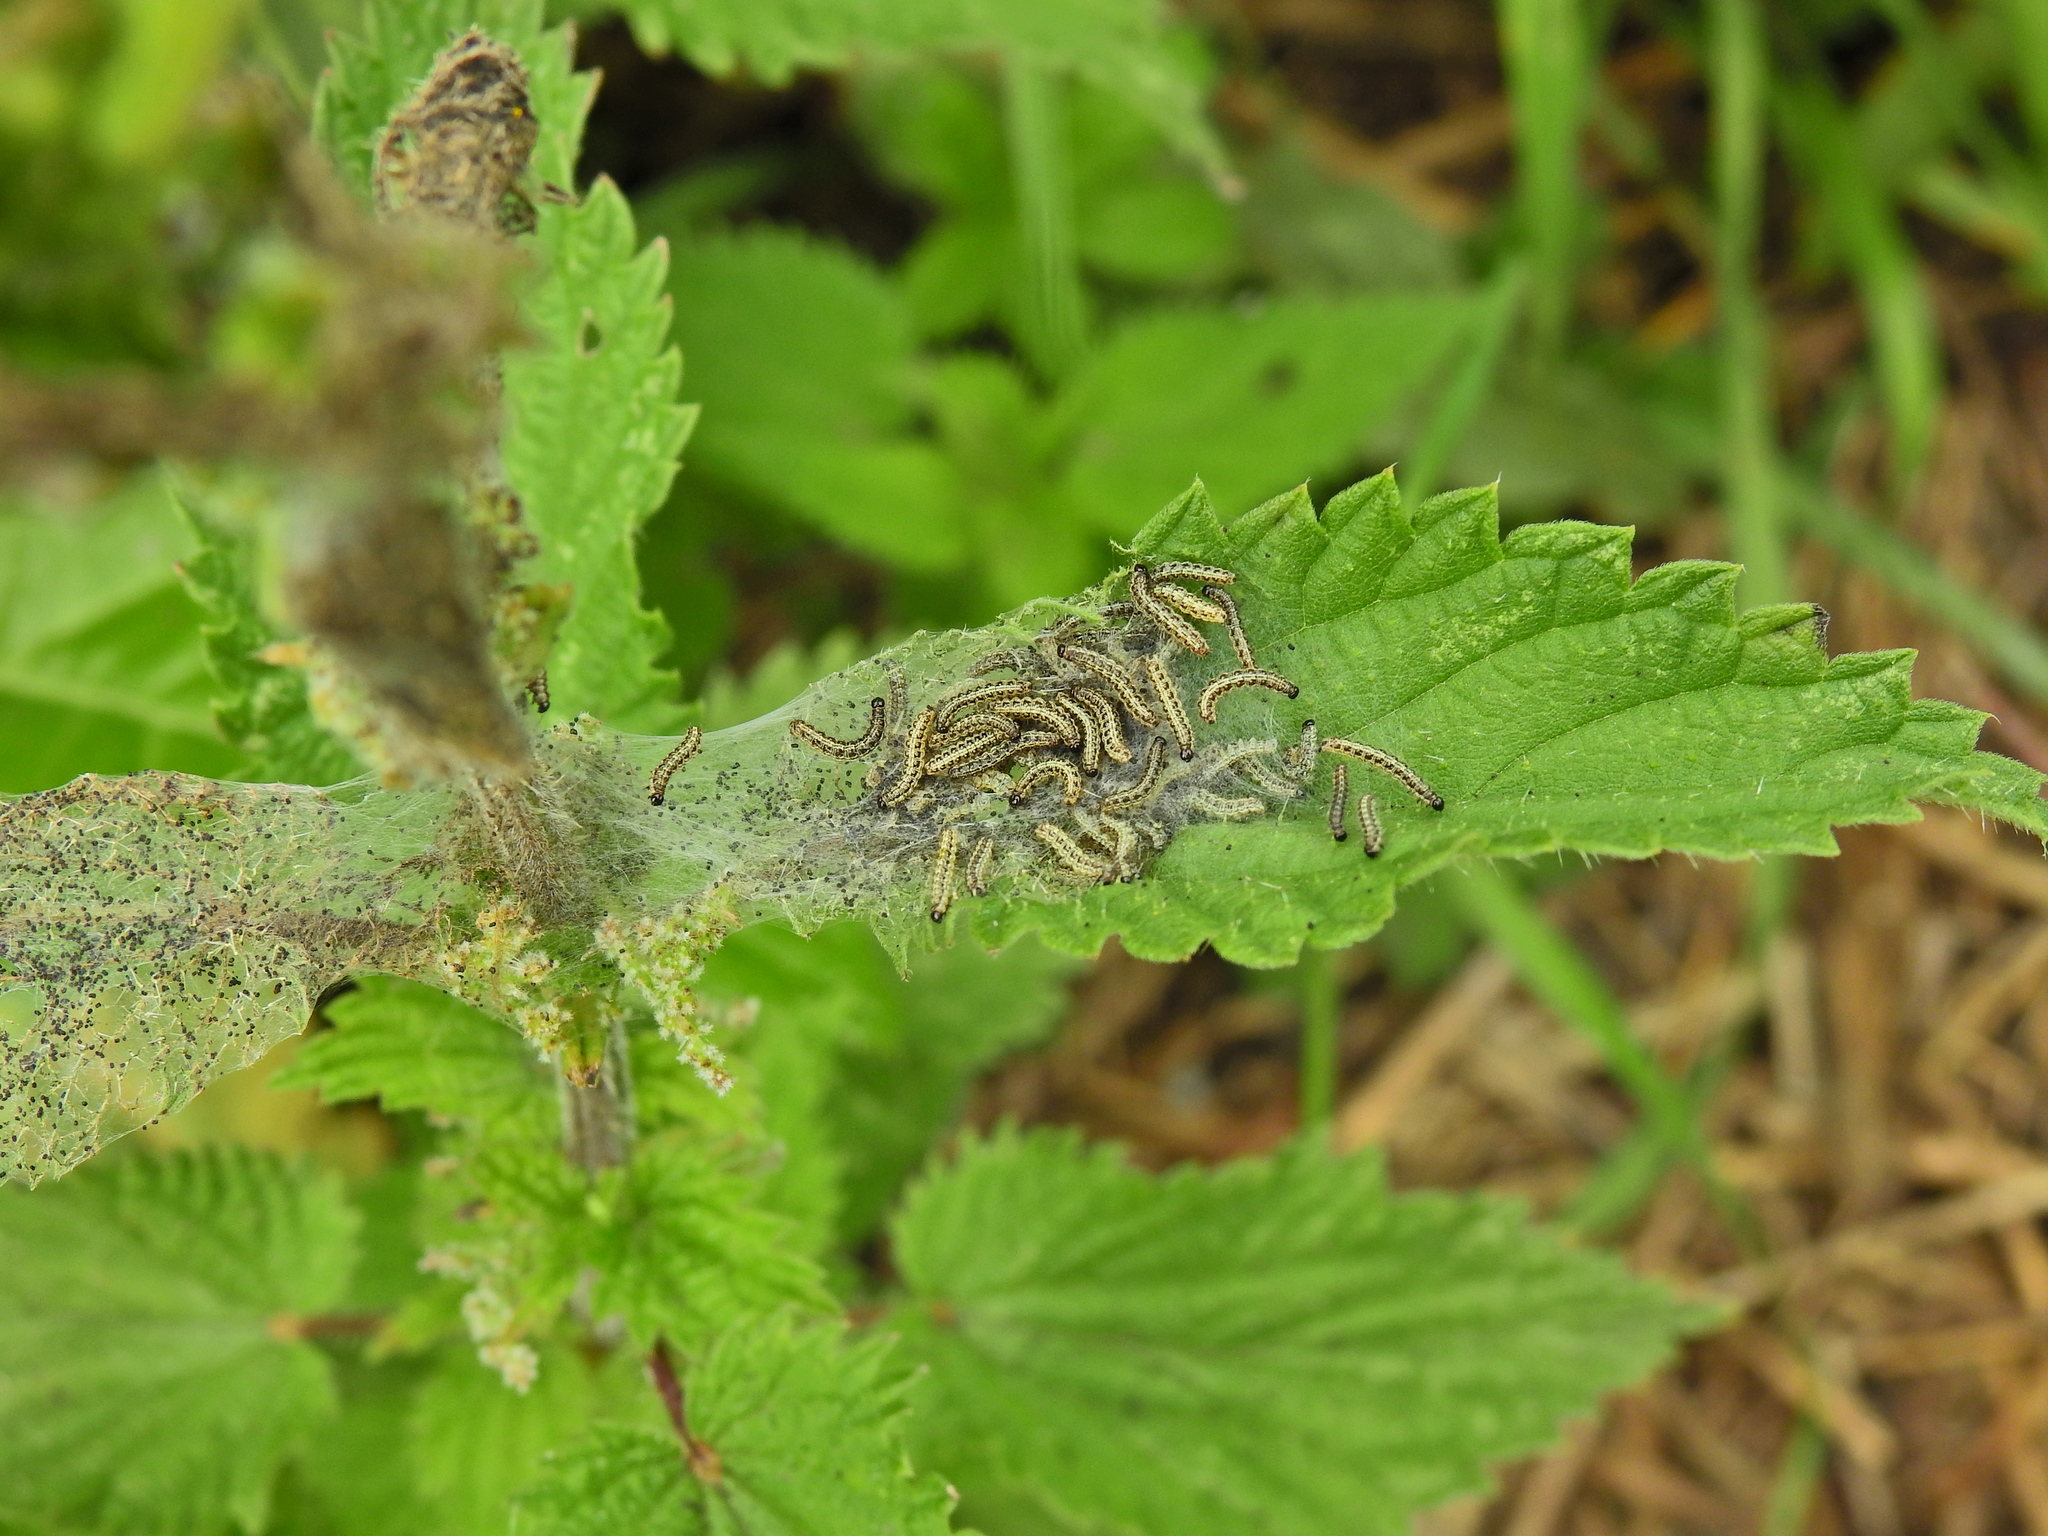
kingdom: Animalia
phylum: Arthropoda
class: Insecta
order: Lepidoptera
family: Nymphalidae
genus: Aglais
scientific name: Aglais urticae
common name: Small tortoiseshell
